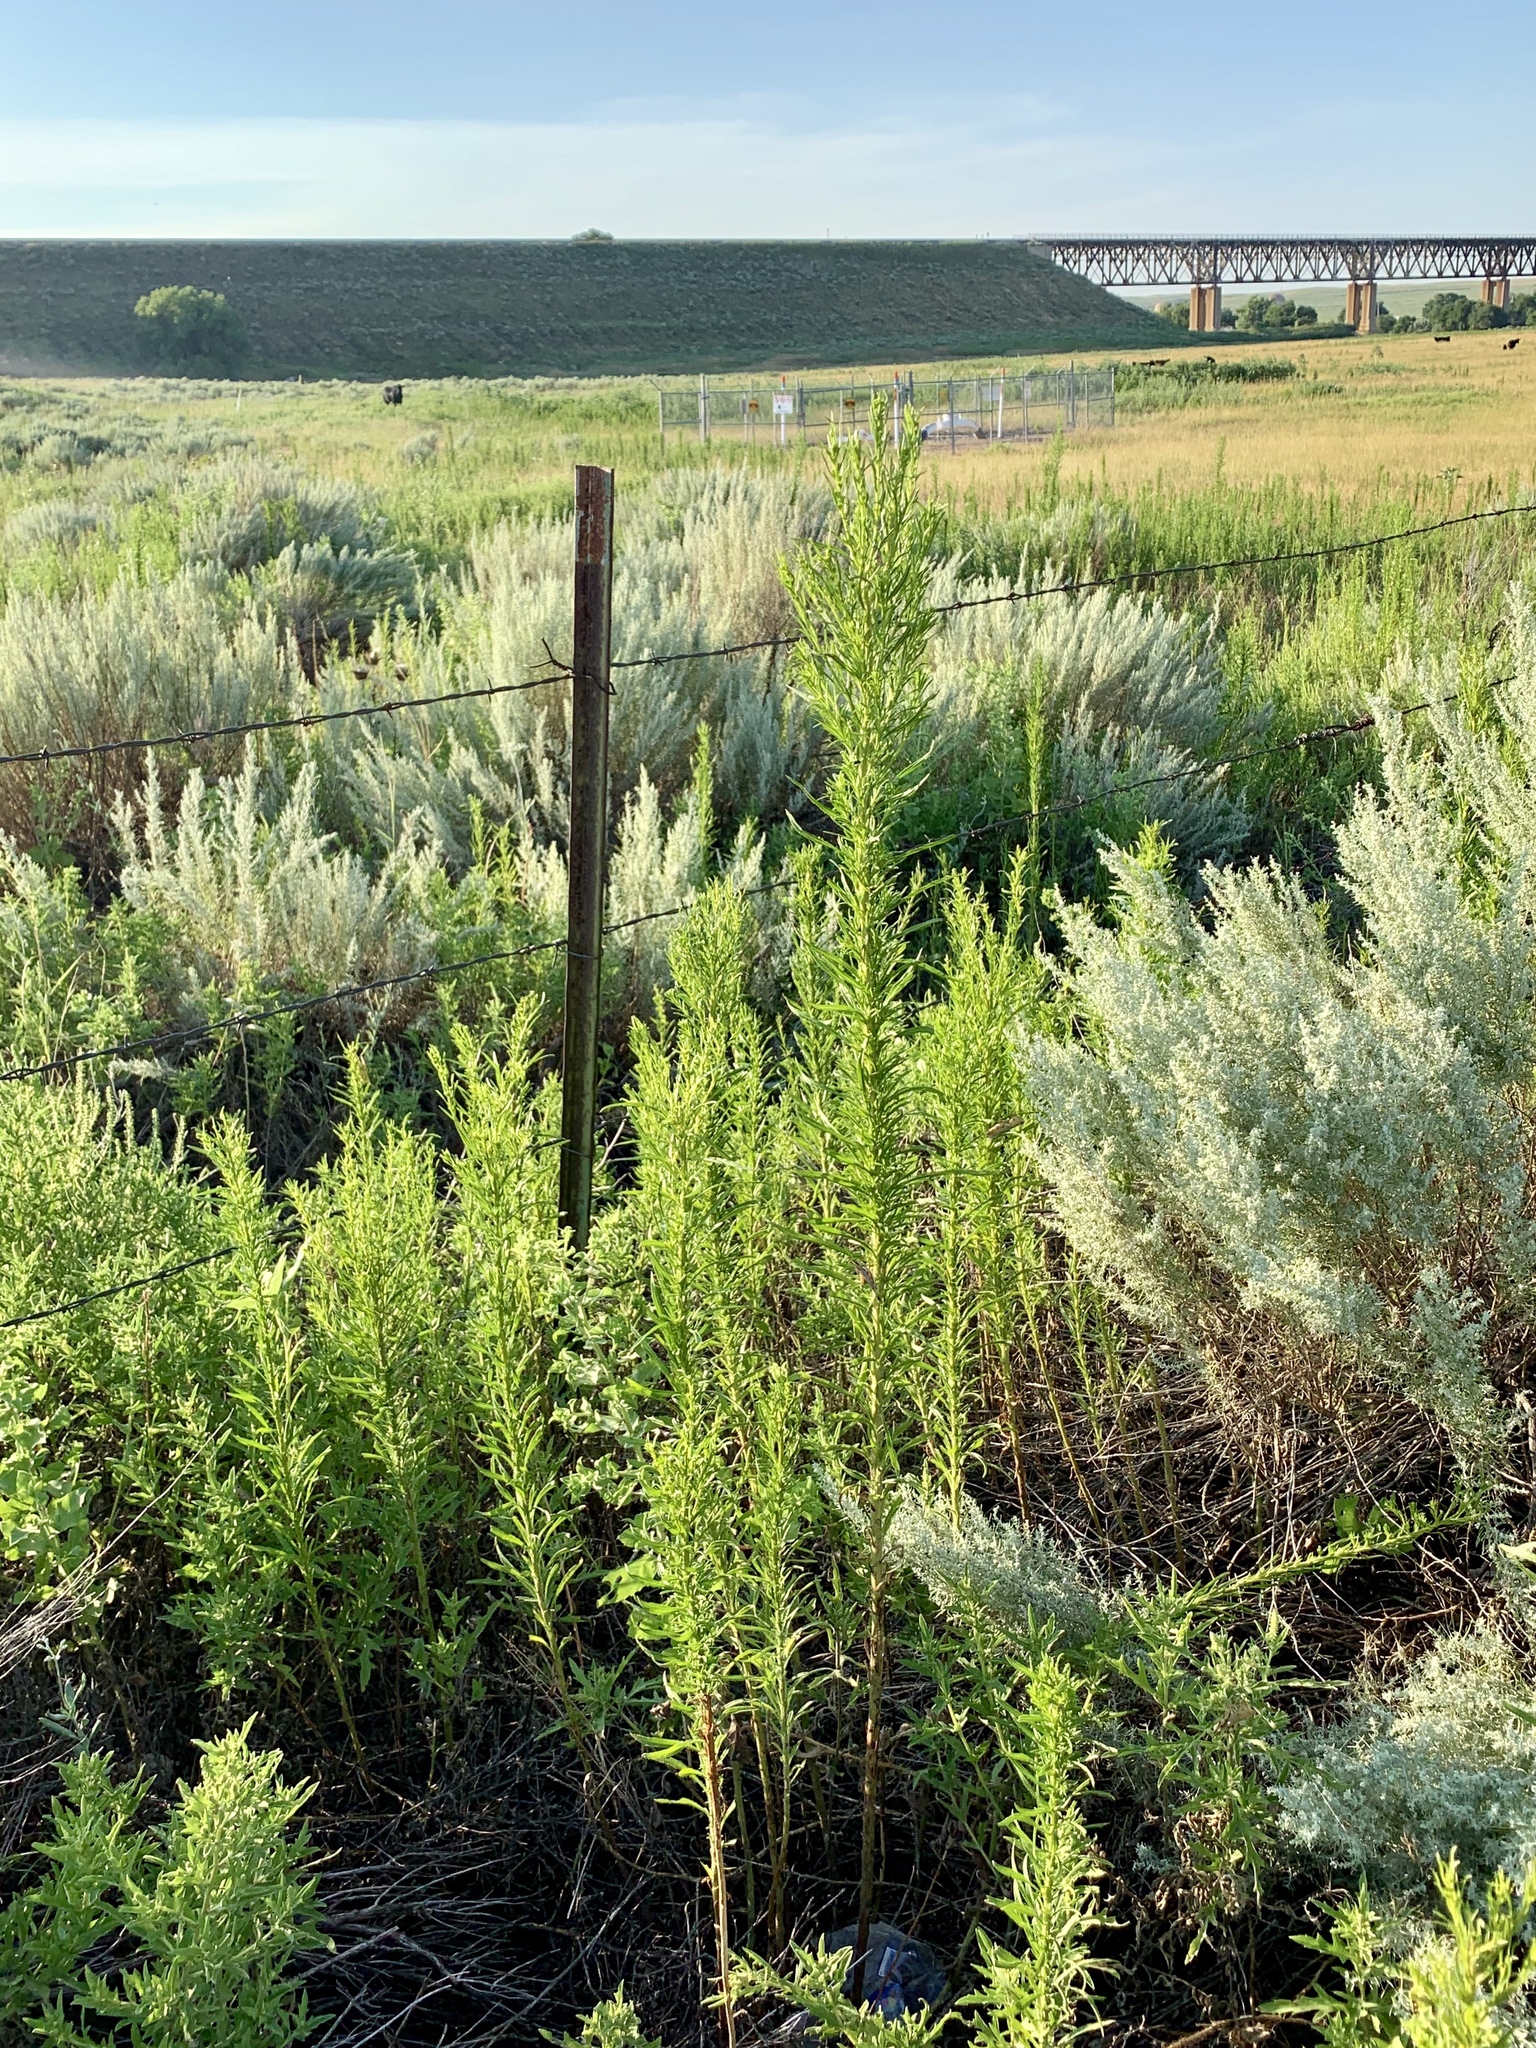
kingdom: Plantae
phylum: Tracheophyta
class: Magnoliopsida
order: Asterales
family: Asteraceae
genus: Erigeron
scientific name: Erigeron canadensis
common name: Canadian fleabane
